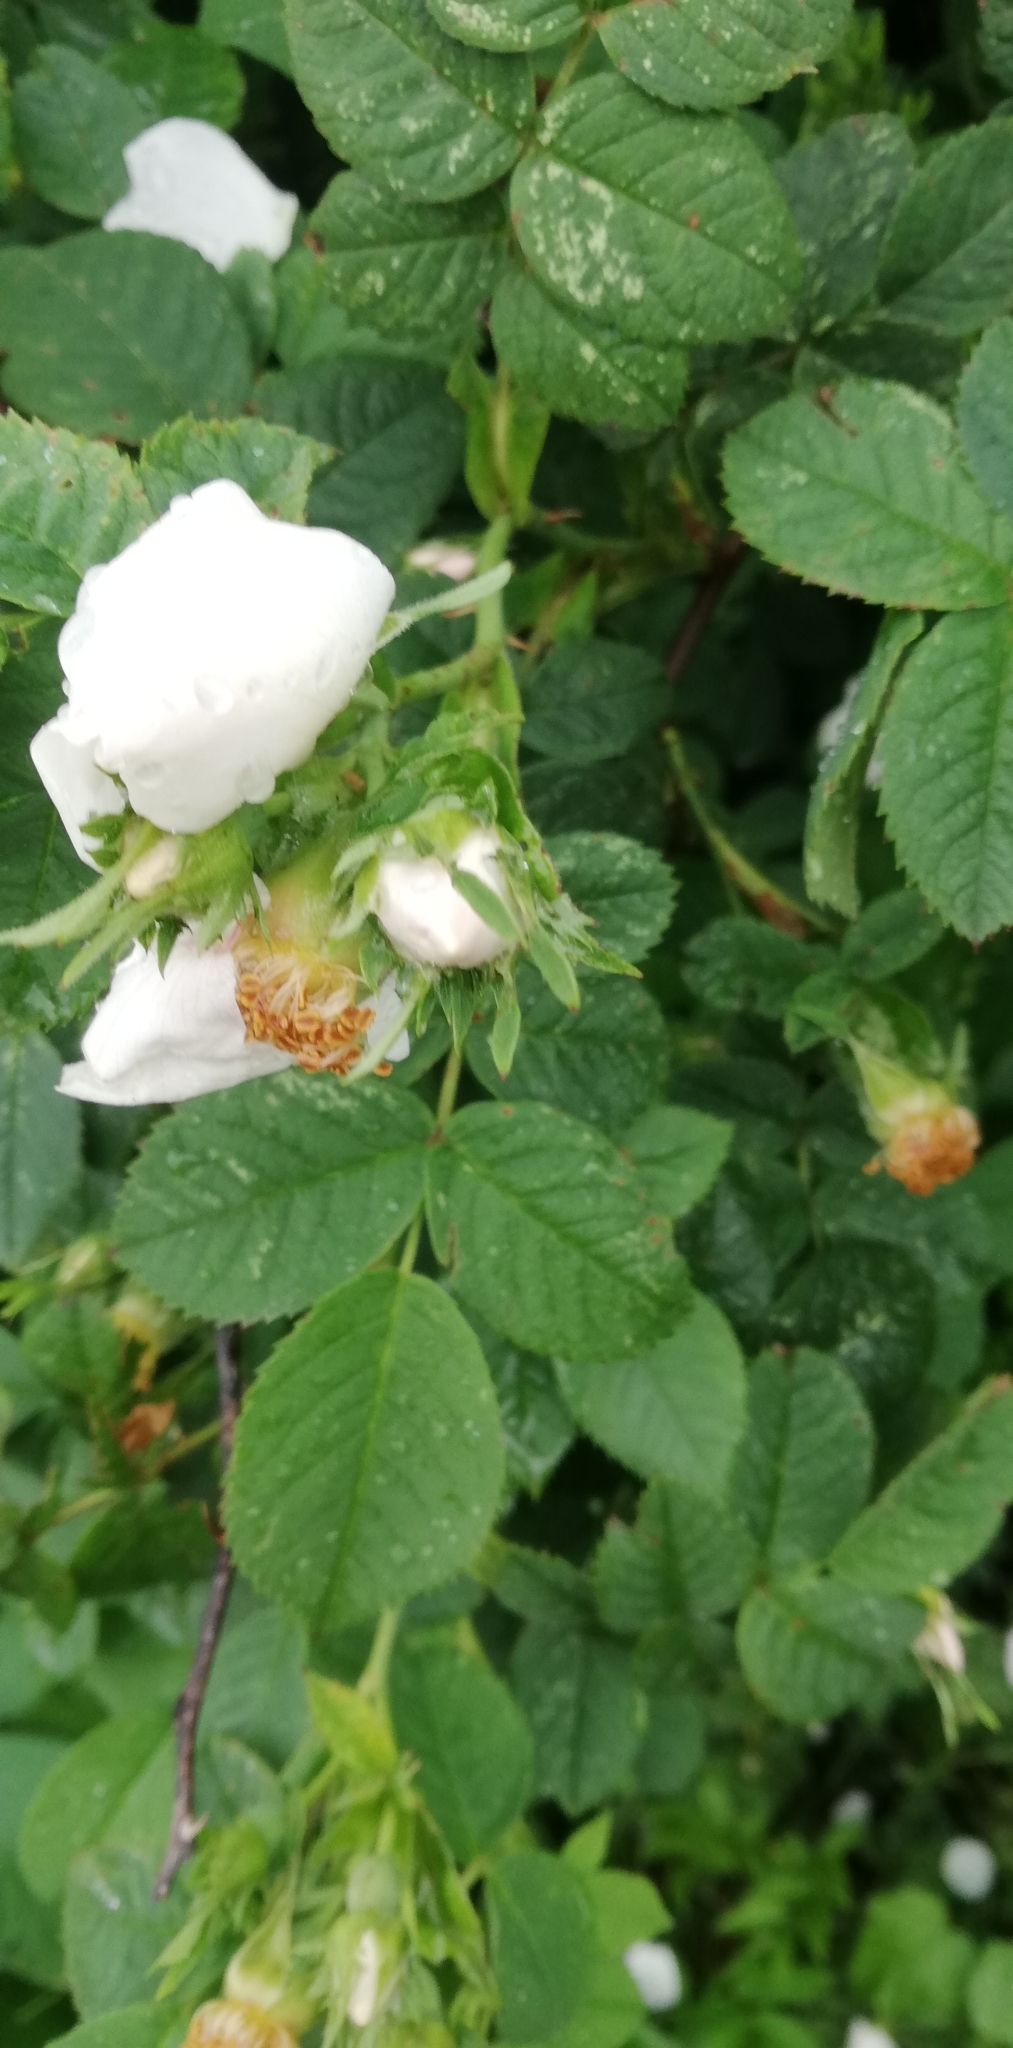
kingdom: Plantae
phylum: Tracheophyta
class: Magnoliopsida
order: Rosales
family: Rosaceae
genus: Rosa
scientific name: Rosa
